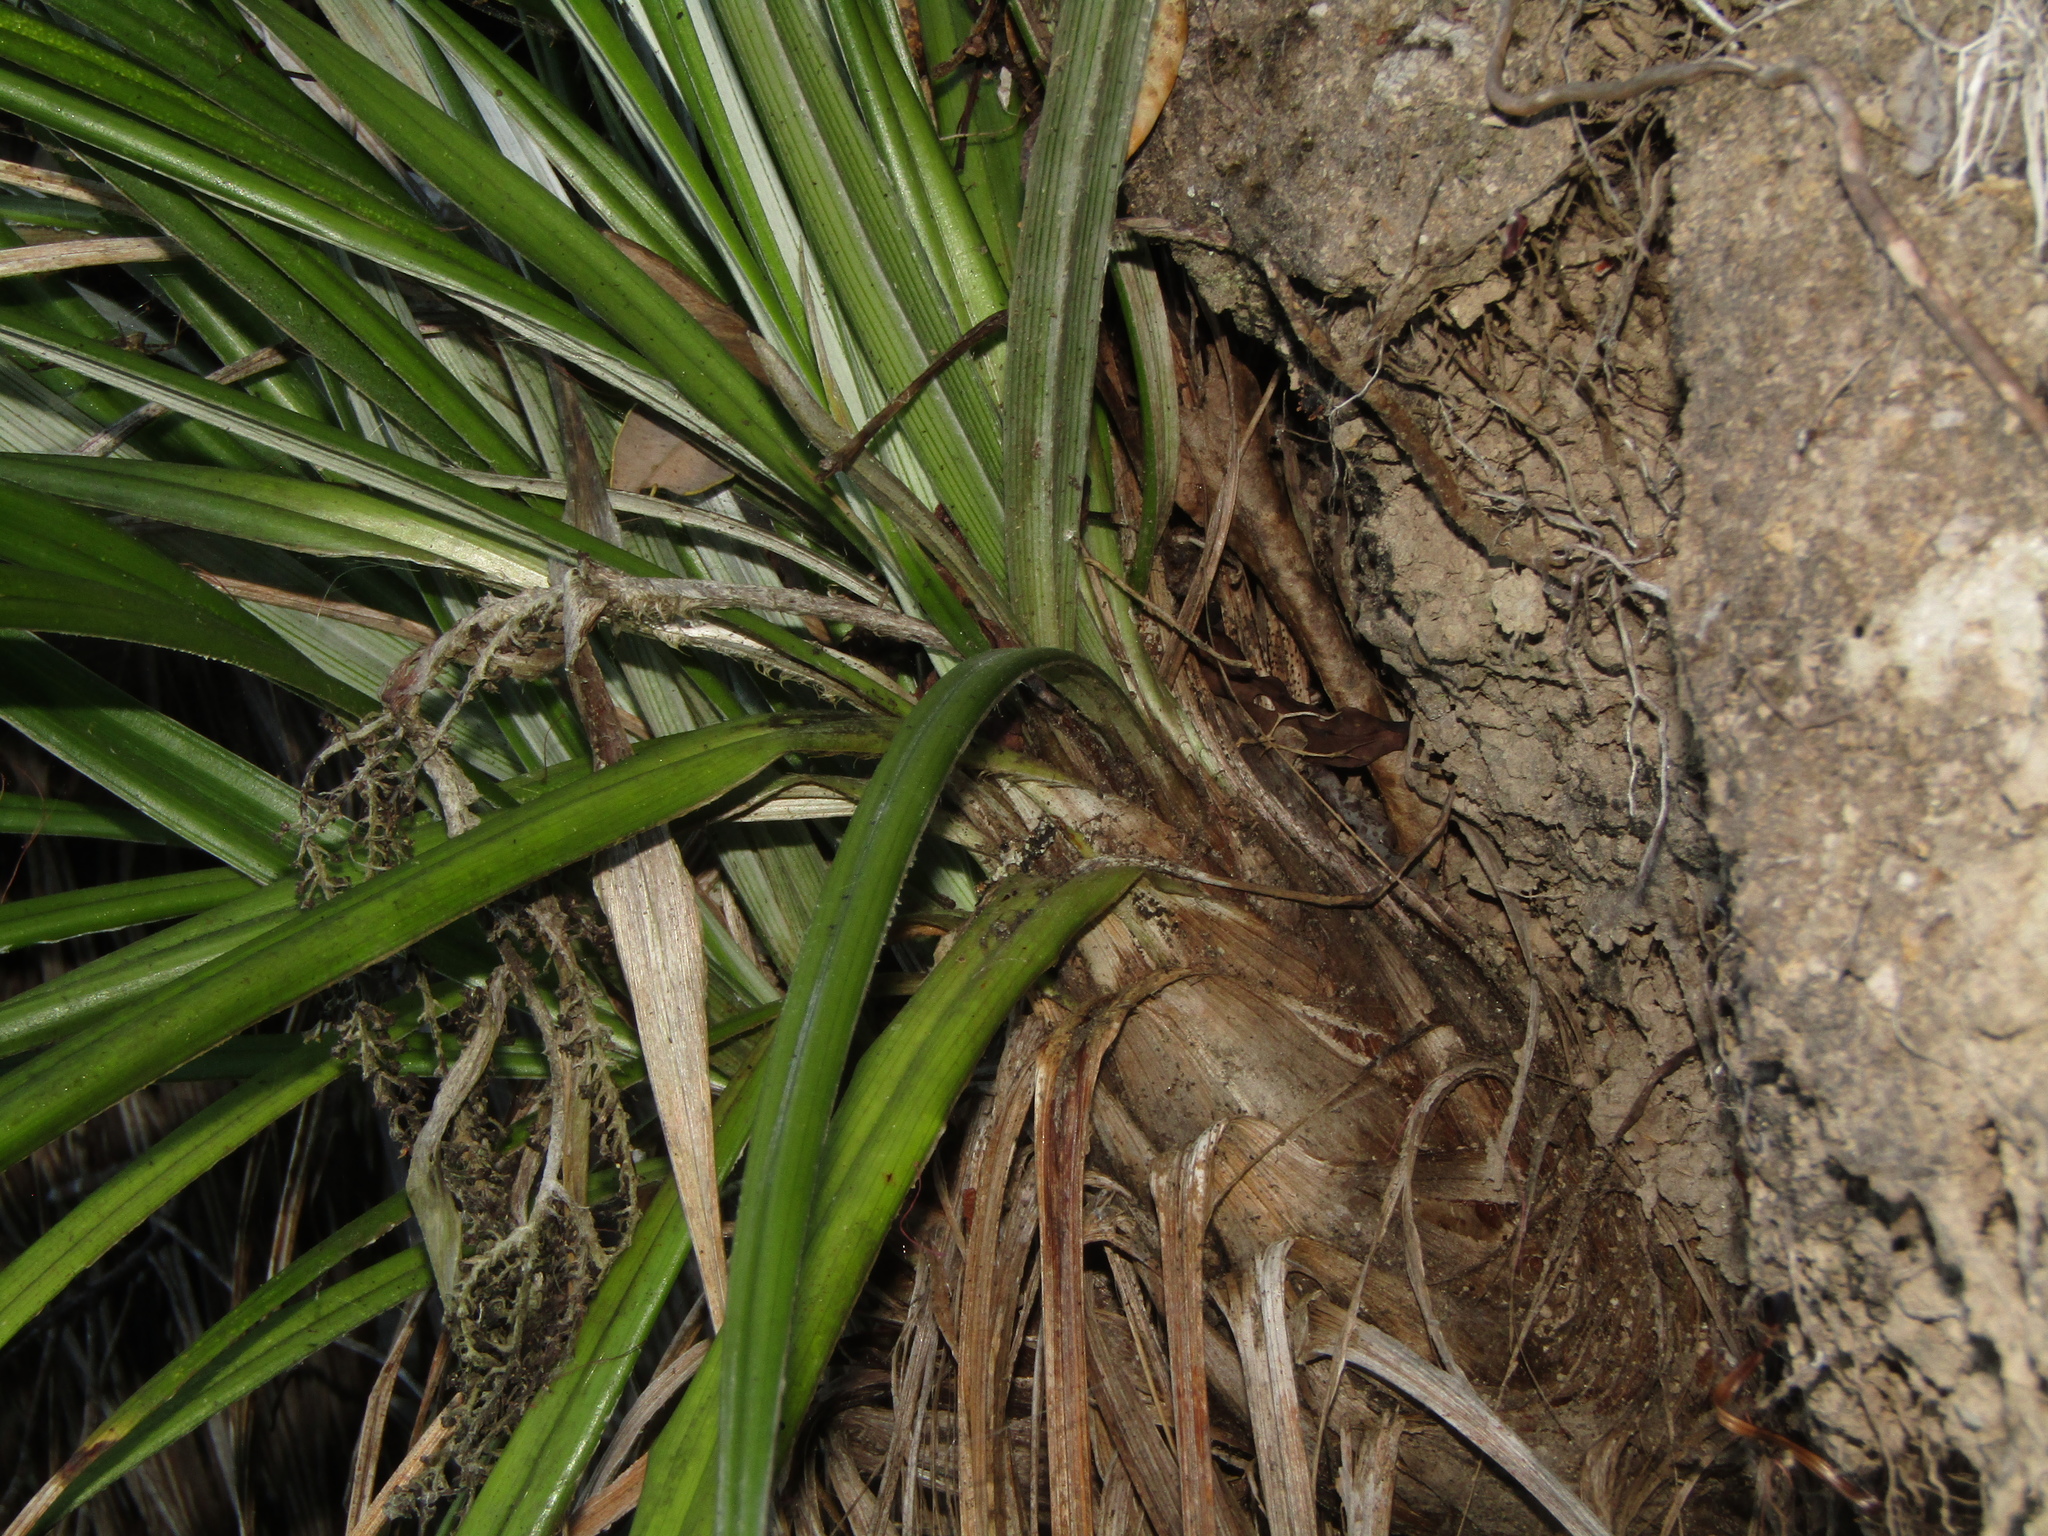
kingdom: Plantae
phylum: Tracheophyta
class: Liliopsida
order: Asparagales
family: Asteliaceae
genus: Astelia
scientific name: Astelia banksii
